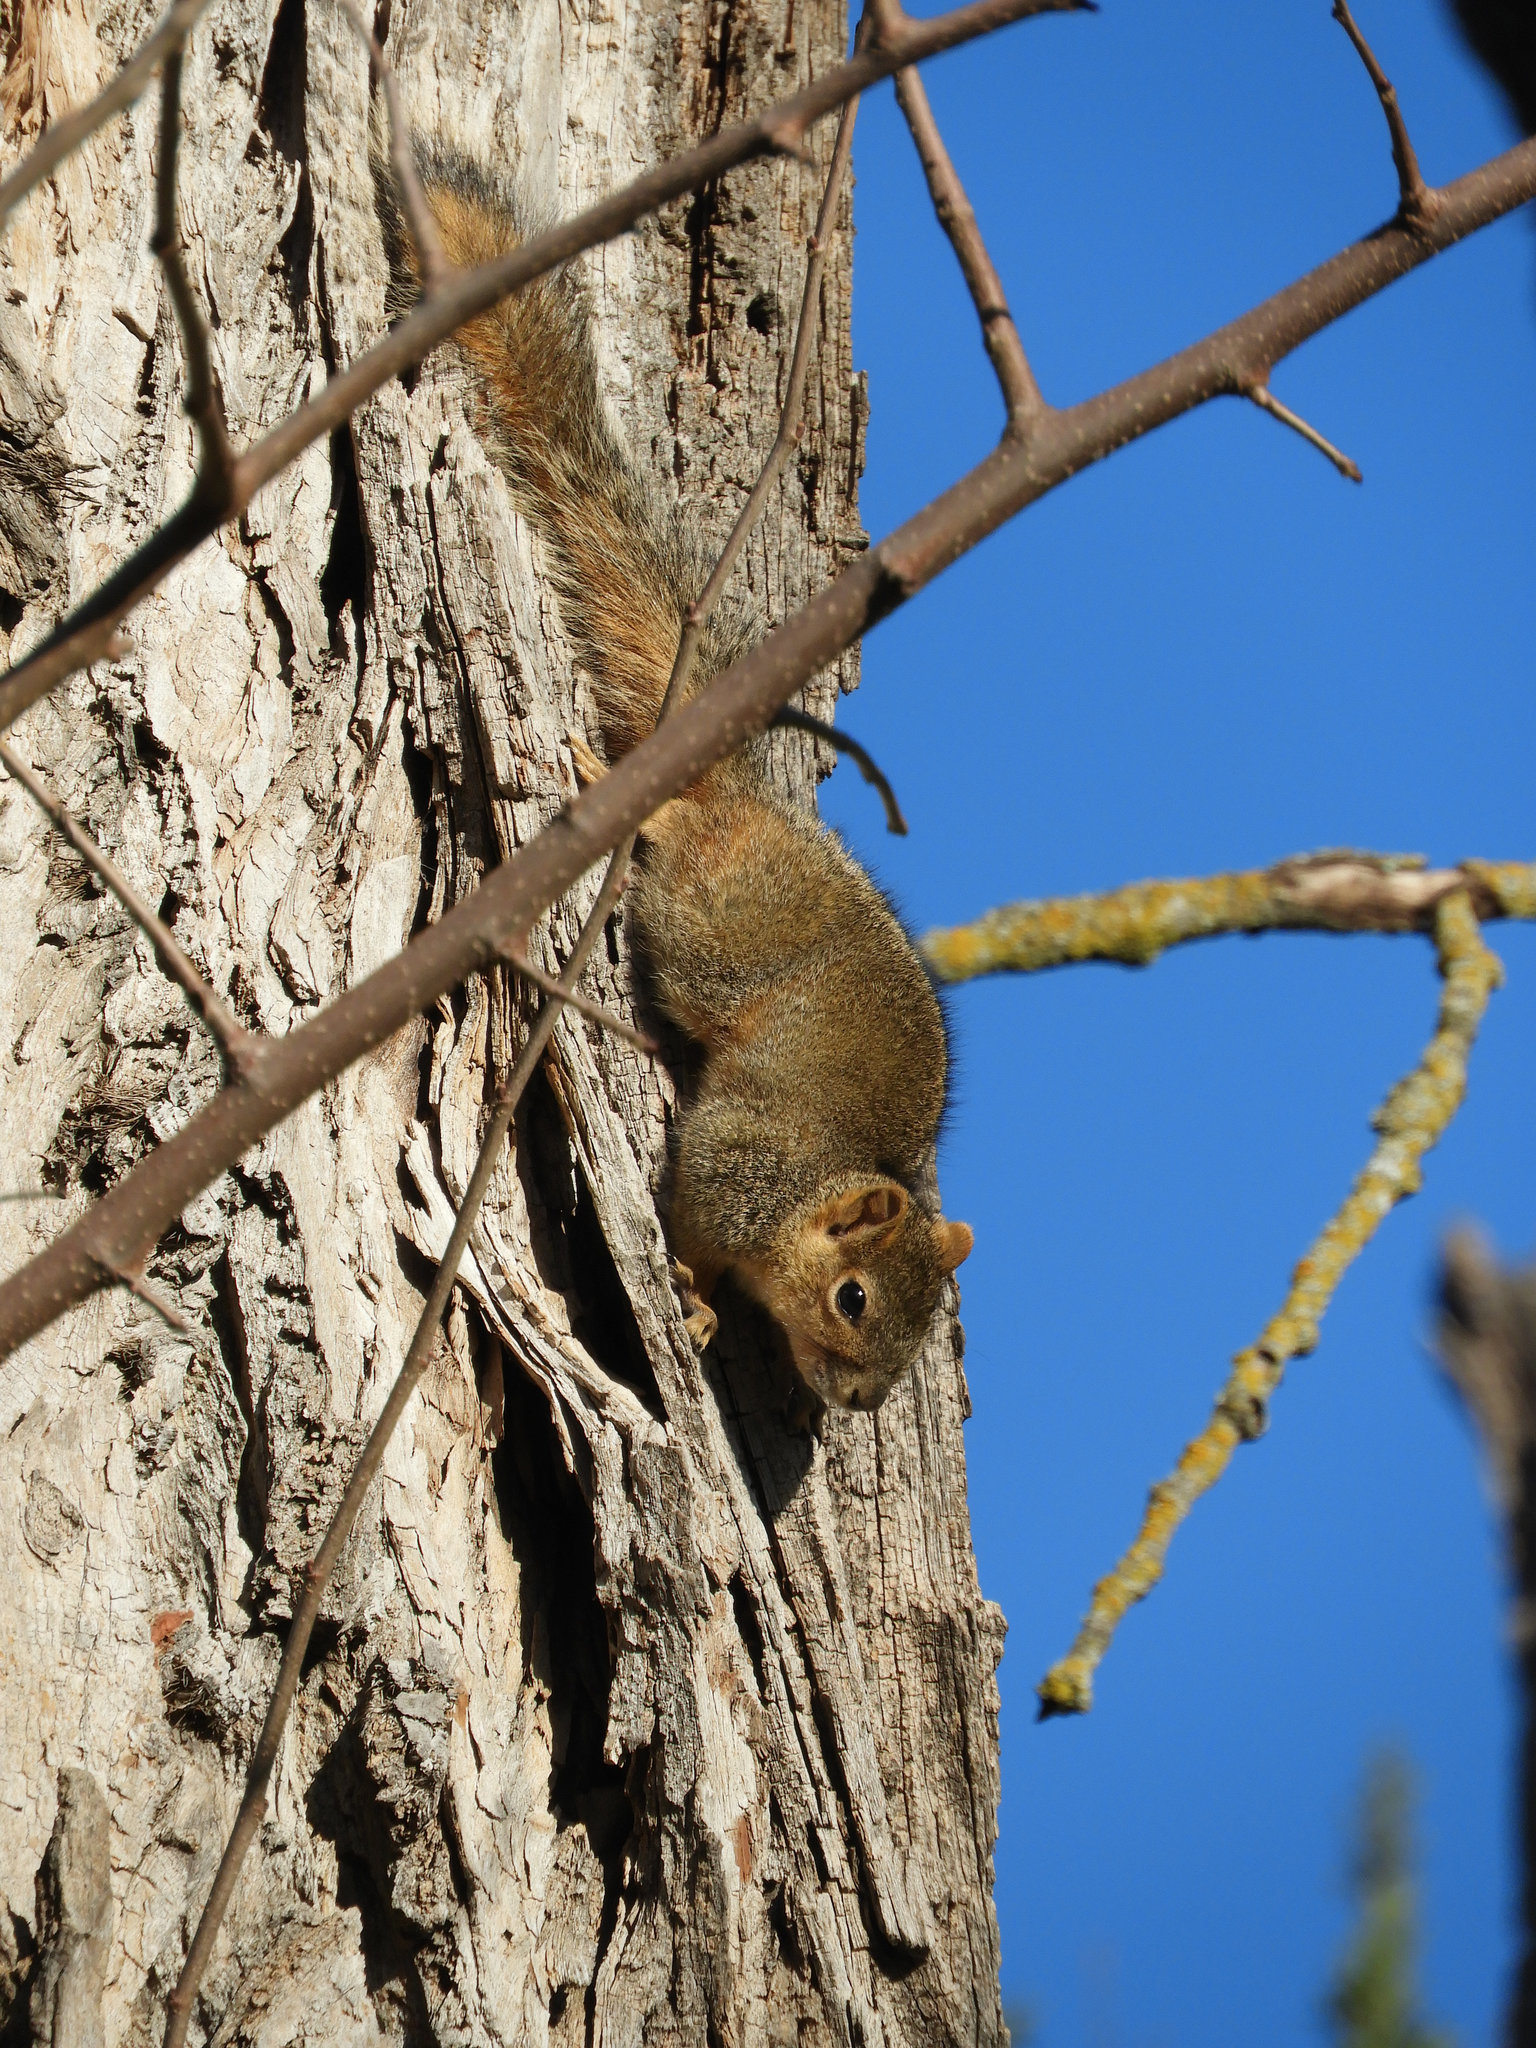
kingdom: Animalia
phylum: Chordata
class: Mammalia
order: Rodentia
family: Sciuridae
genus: Sciurus
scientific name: Sciurus niger
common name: Fox squirrel
